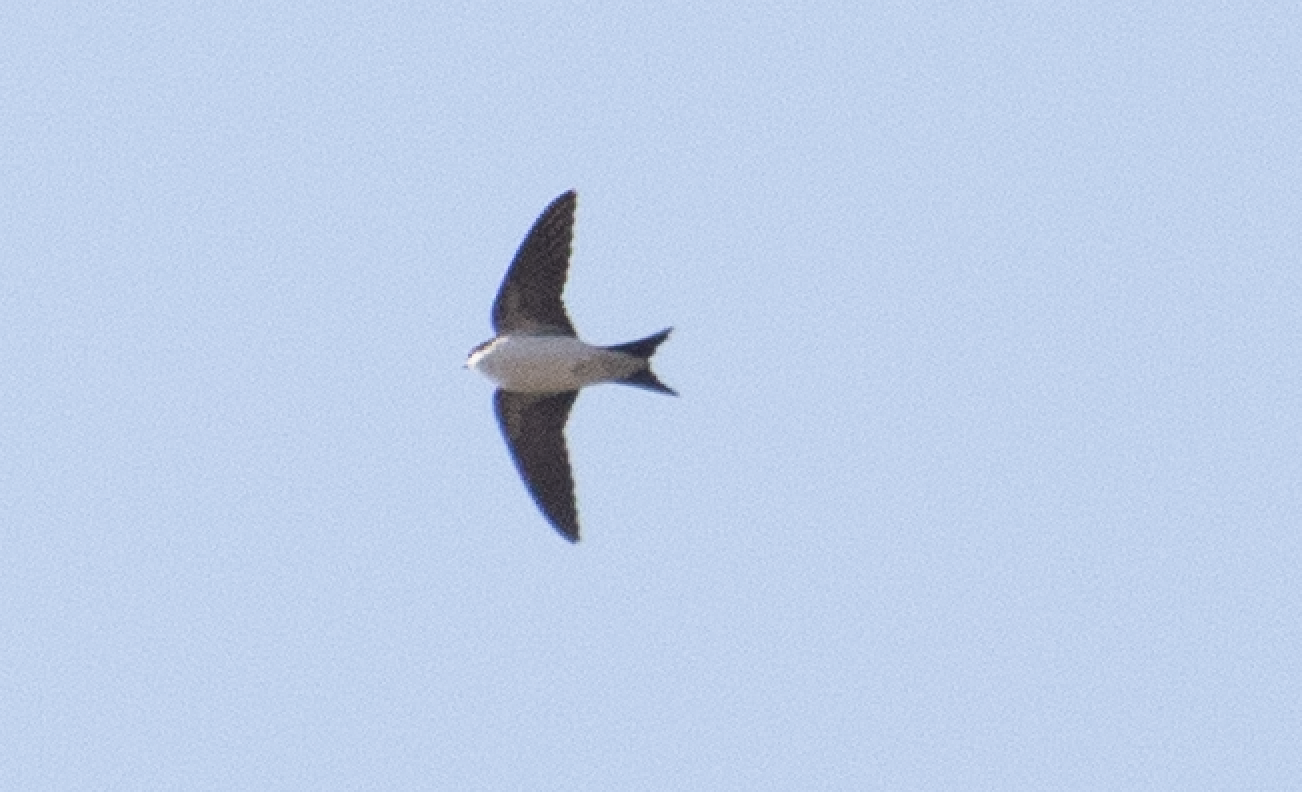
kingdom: Animalia
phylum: Chordata
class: Aves
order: Passeriformes
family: Hirundinidae
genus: Delichon
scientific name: Delichon urbicum
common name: Common house martin
